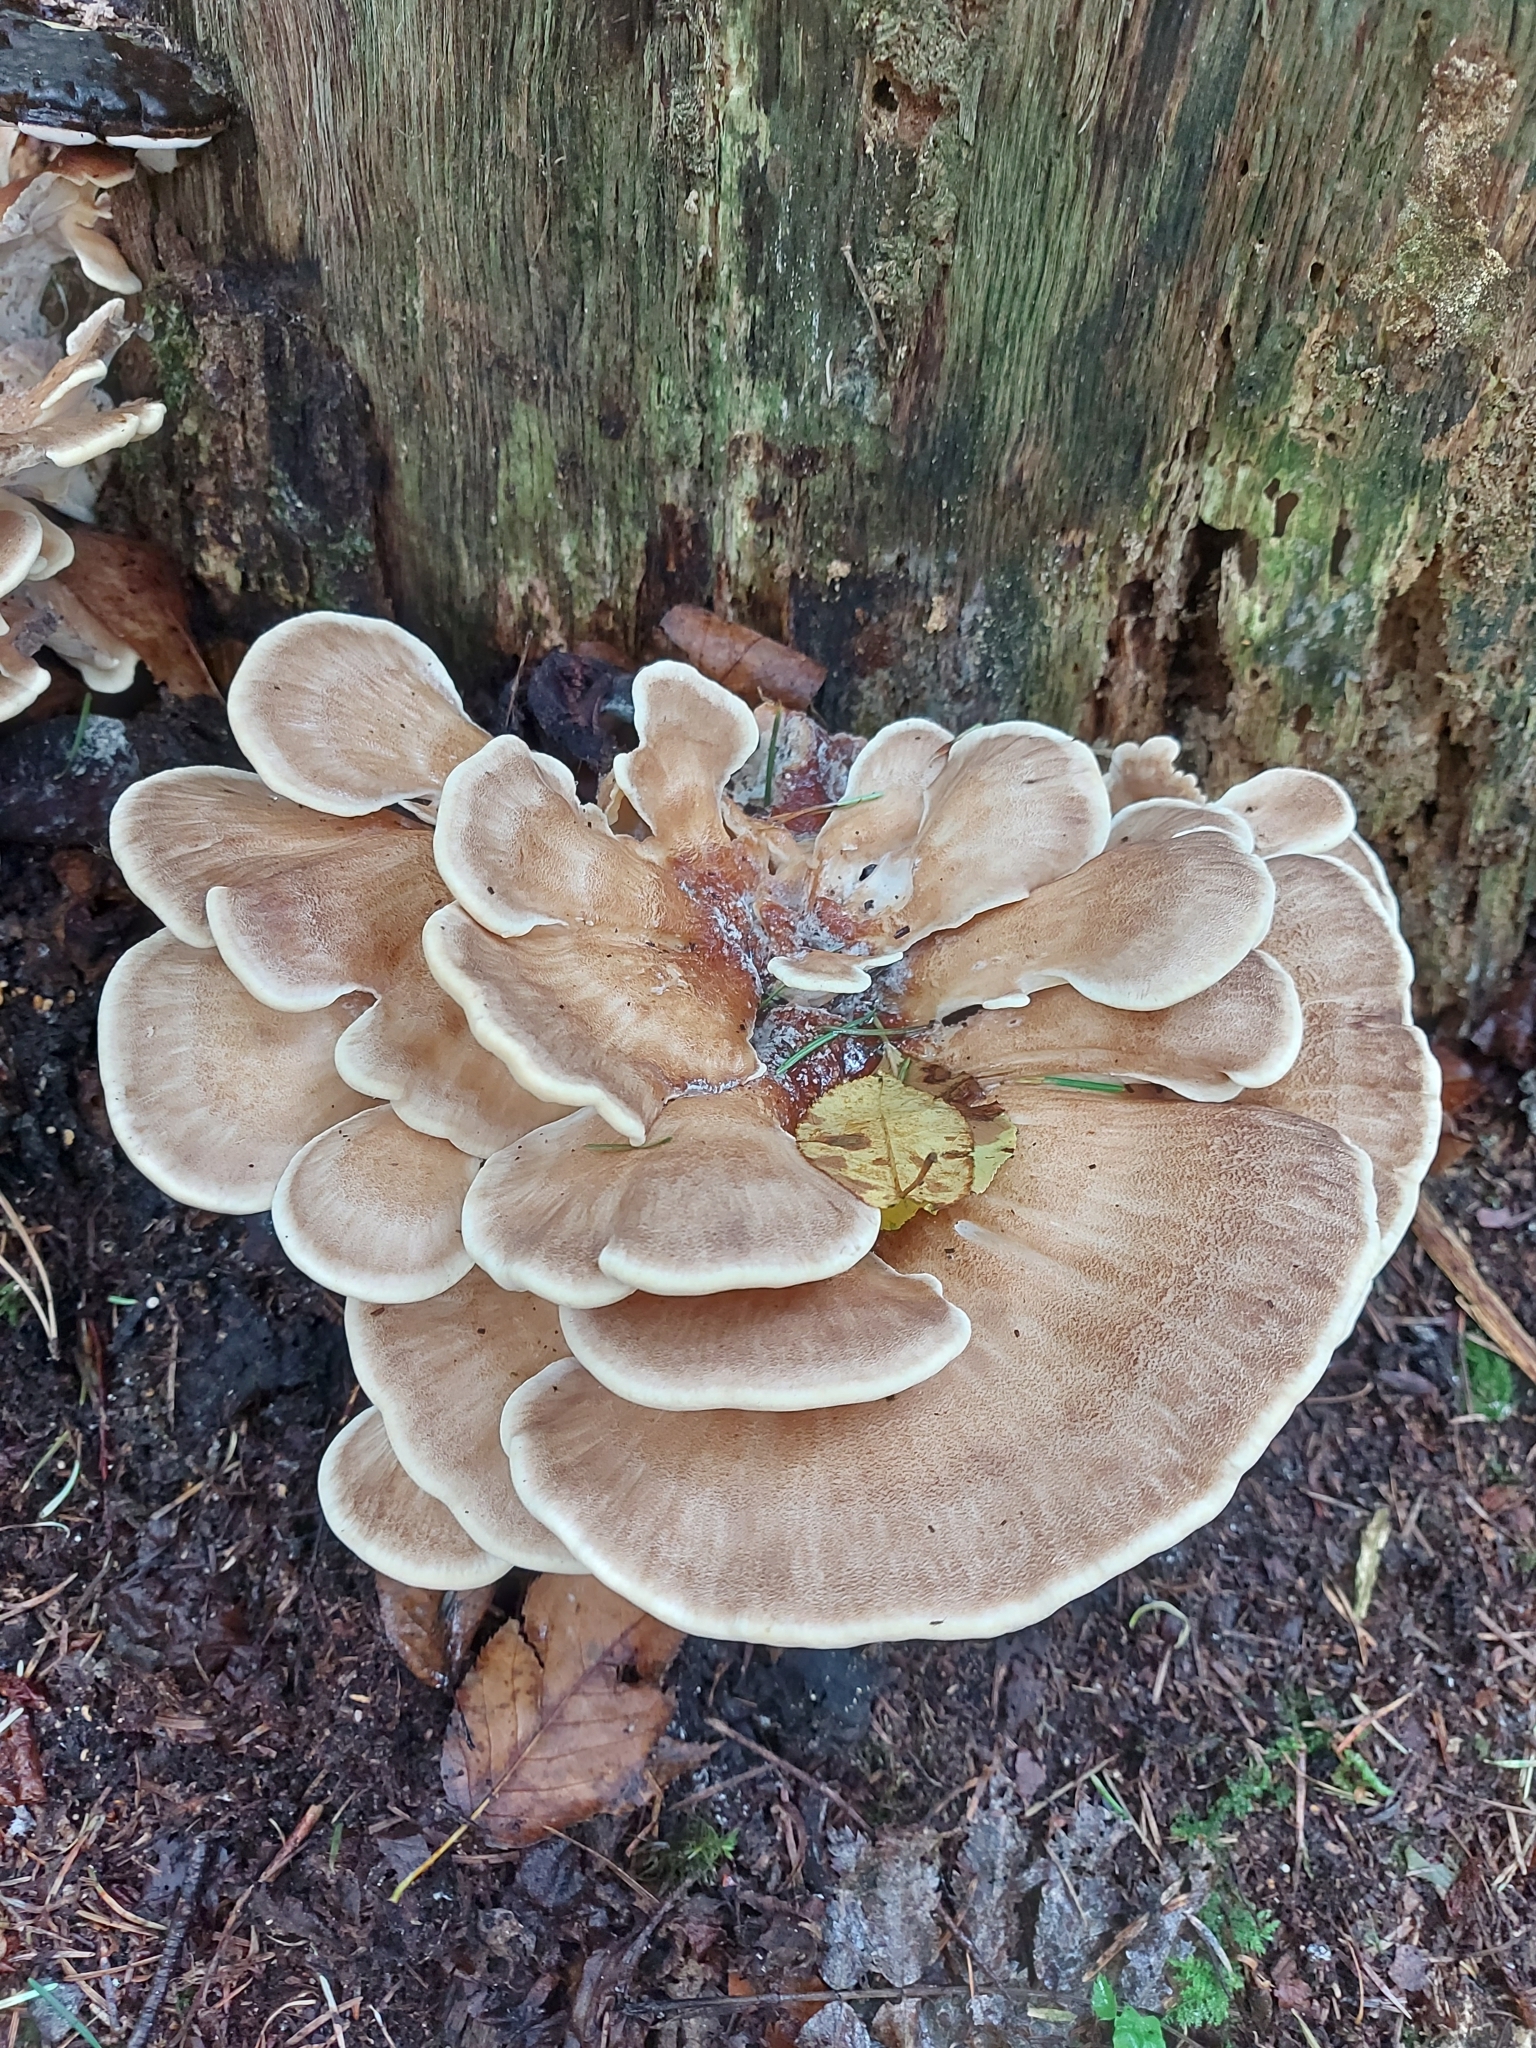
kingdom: Fungi
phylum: Basidiomycota
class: Agaricomycetes
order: Polyporales
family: Meripilaceae
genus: Meripilus
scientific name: Meripilus giganteus
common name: Giant polypore
